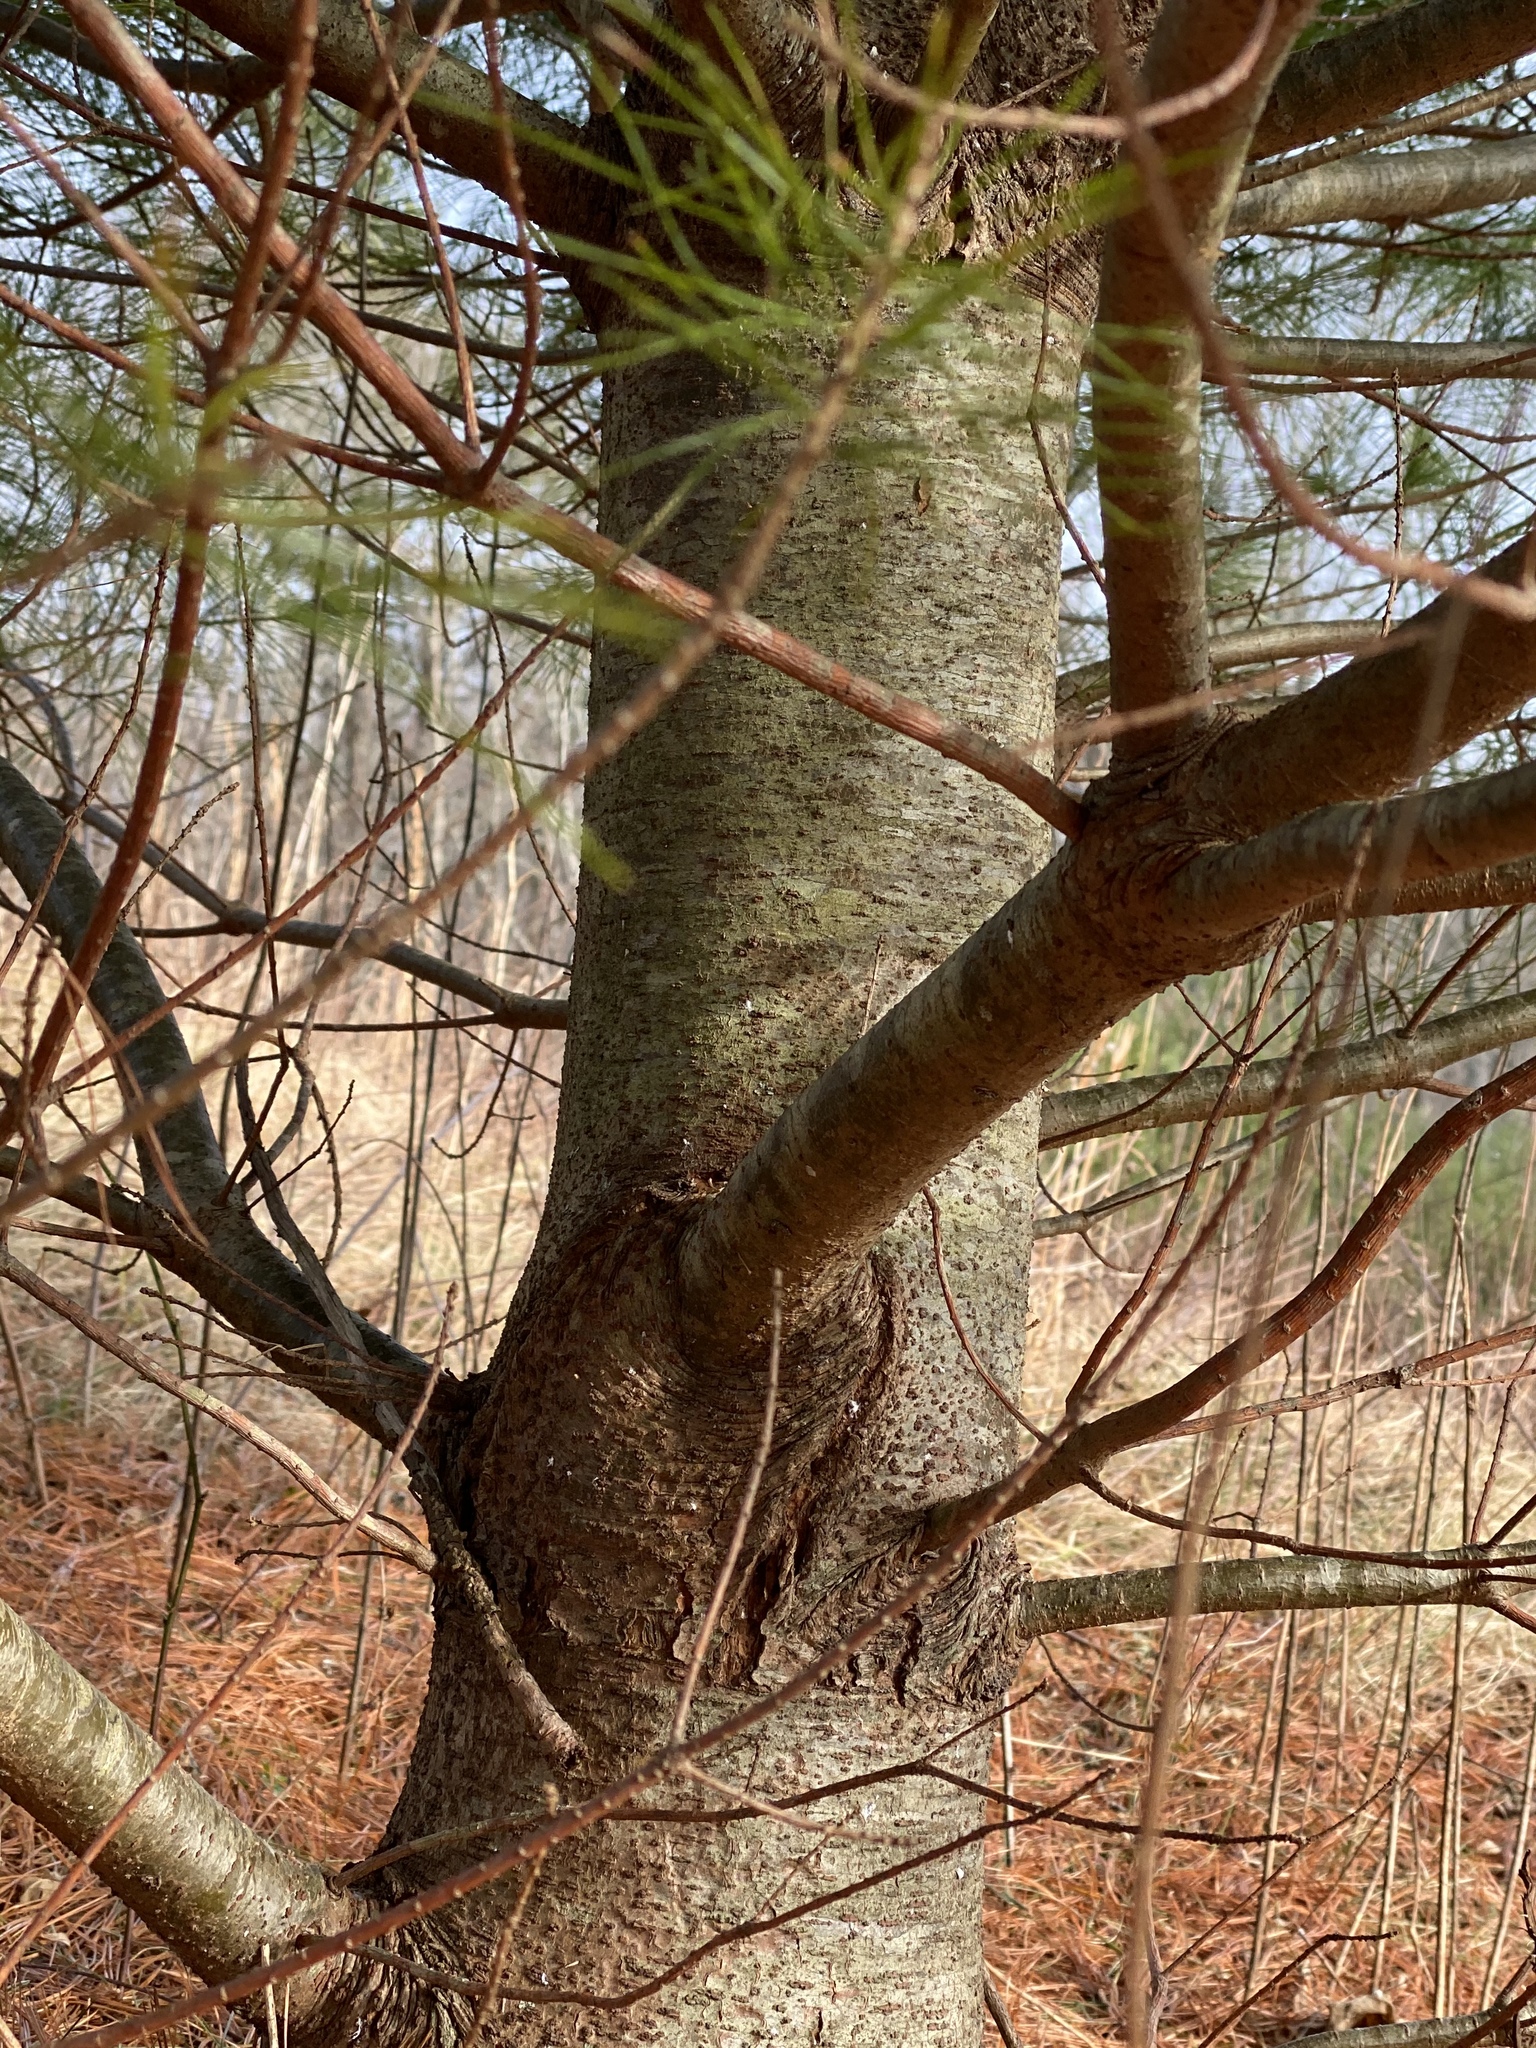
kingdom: Plantae
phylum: Tracheophyta
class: Pinopsida
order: Pinales
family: Pinaceae
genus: Pinus
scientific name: Pinus strobus
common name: Weymouth pine
